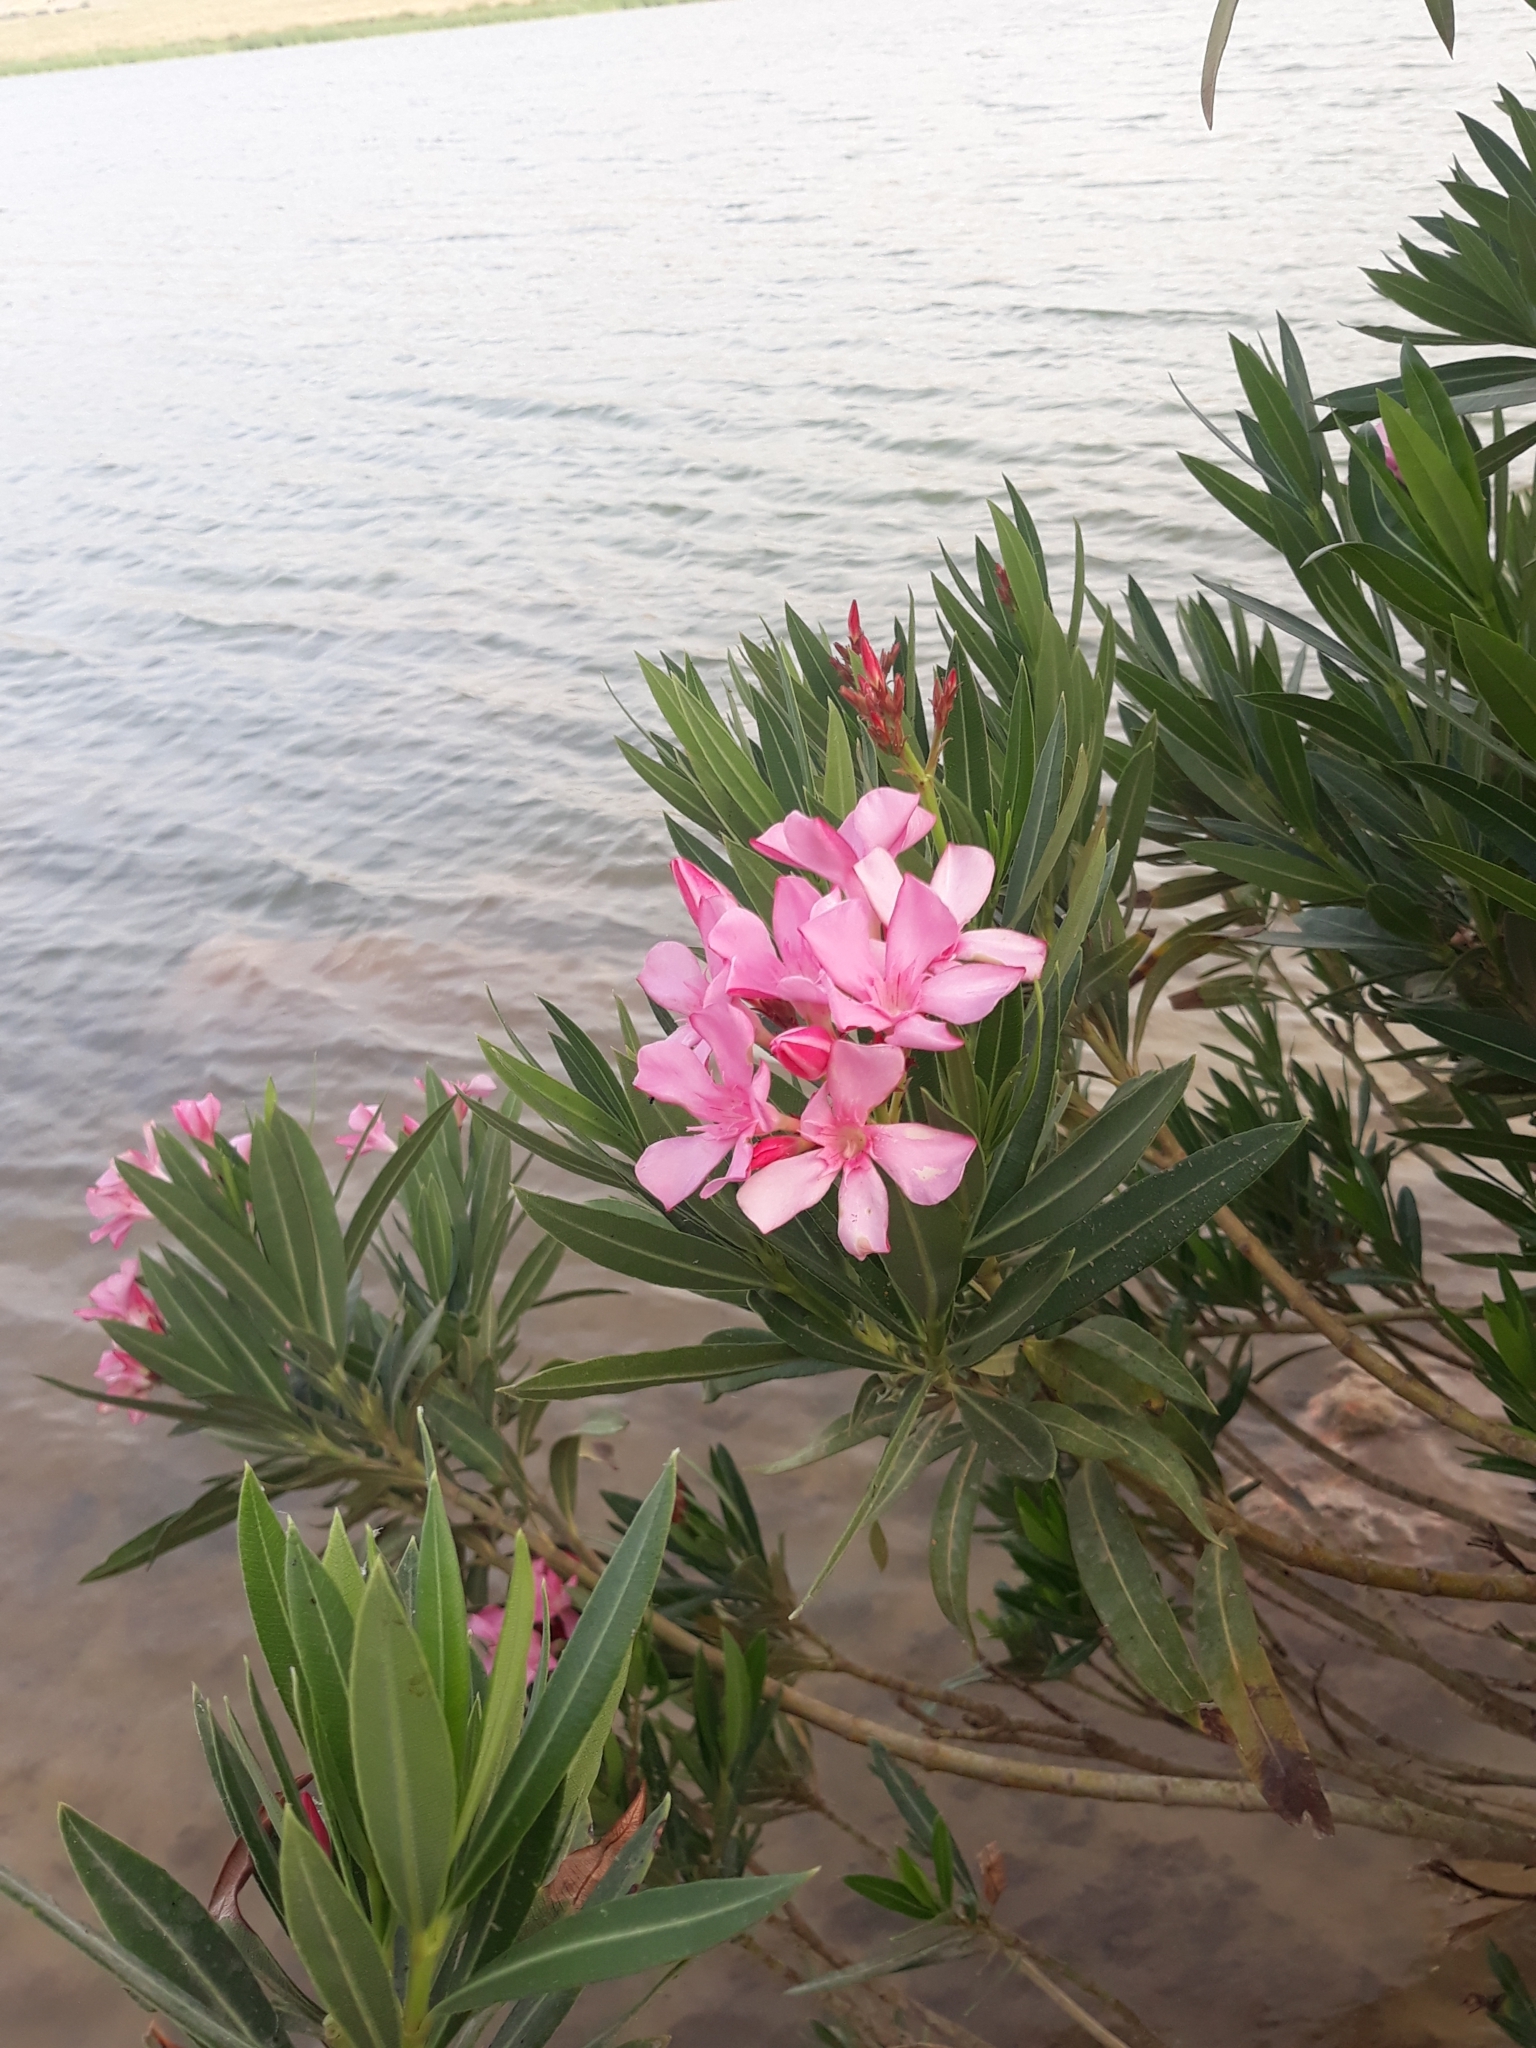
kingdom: Plantae
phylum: Tracheophyta
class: Magnoliopsida
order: Gentianales
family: Apocynaceae
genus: Nerium
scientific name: Nerium oleander
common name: Oleander
